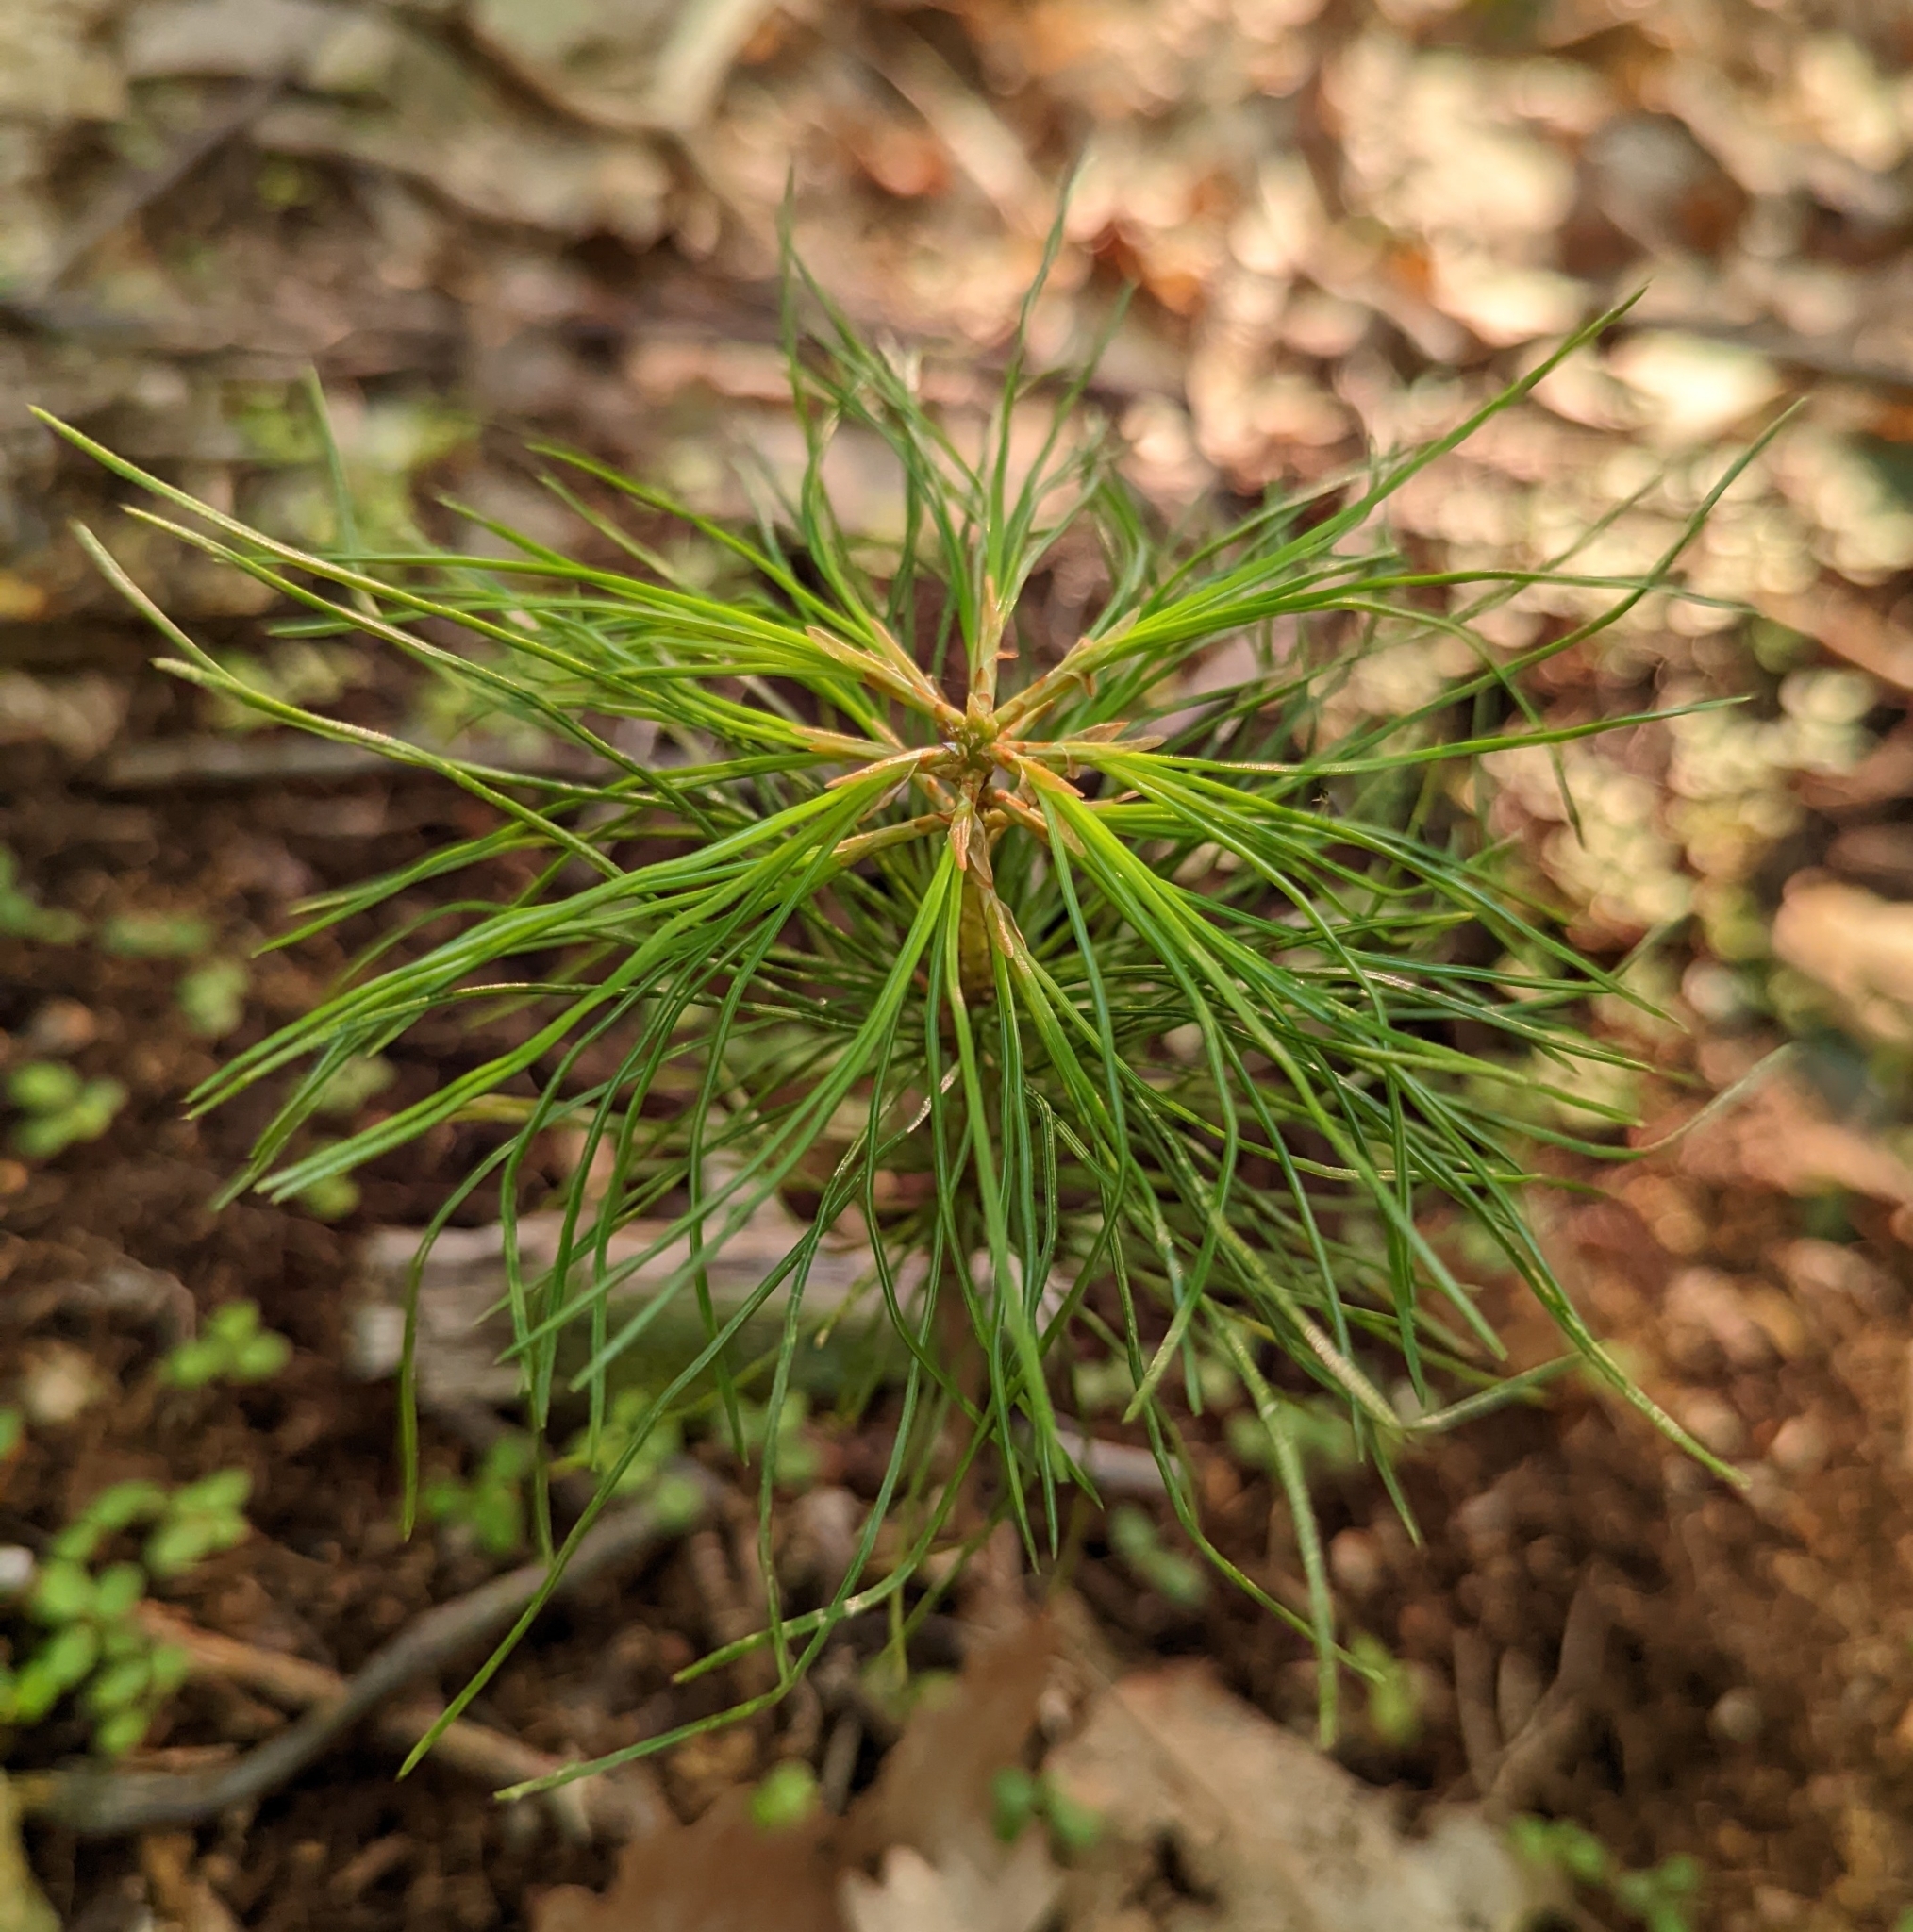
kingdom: Plantae
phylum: Tracheophyta
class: Pinopsida
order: Pinales
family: Pinaceae
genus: Pinus
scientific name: Pinus strobus
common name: Weymouth pine
